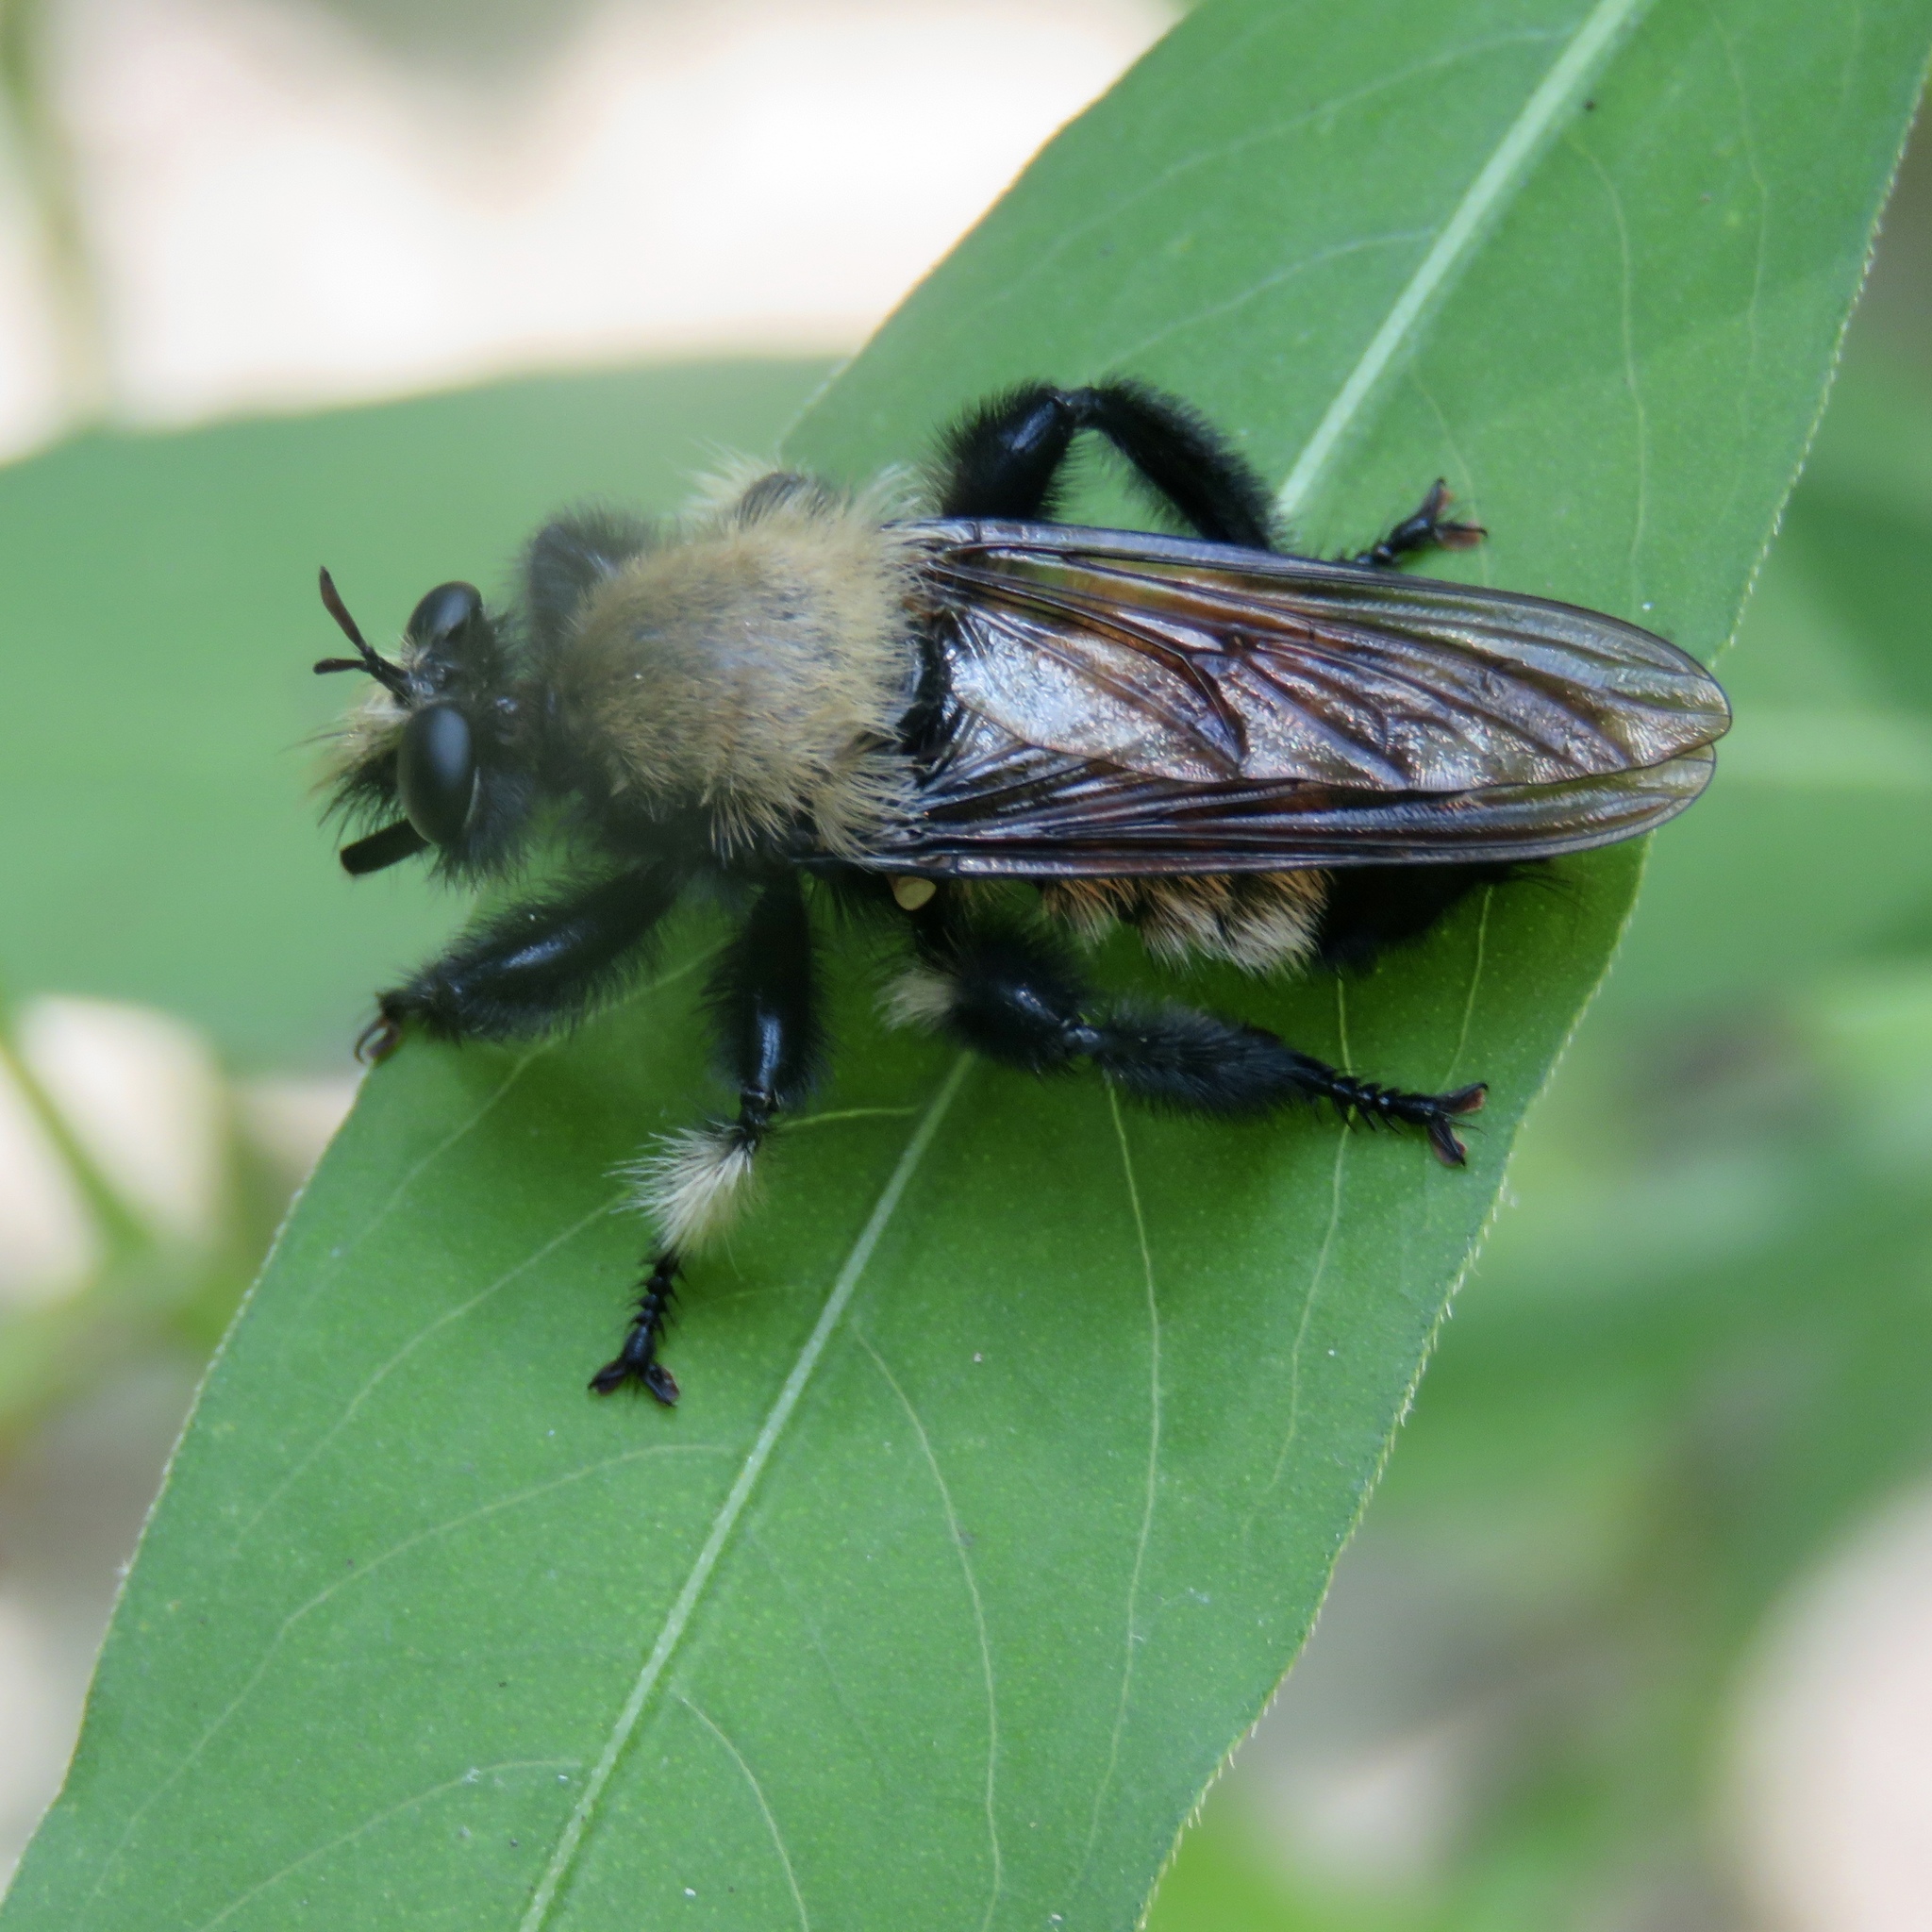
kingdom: Animalia
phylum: Arthropoda
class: Insecta
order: Diptera
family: Asilidae
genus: Laphria
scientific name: Laphria macquarti
